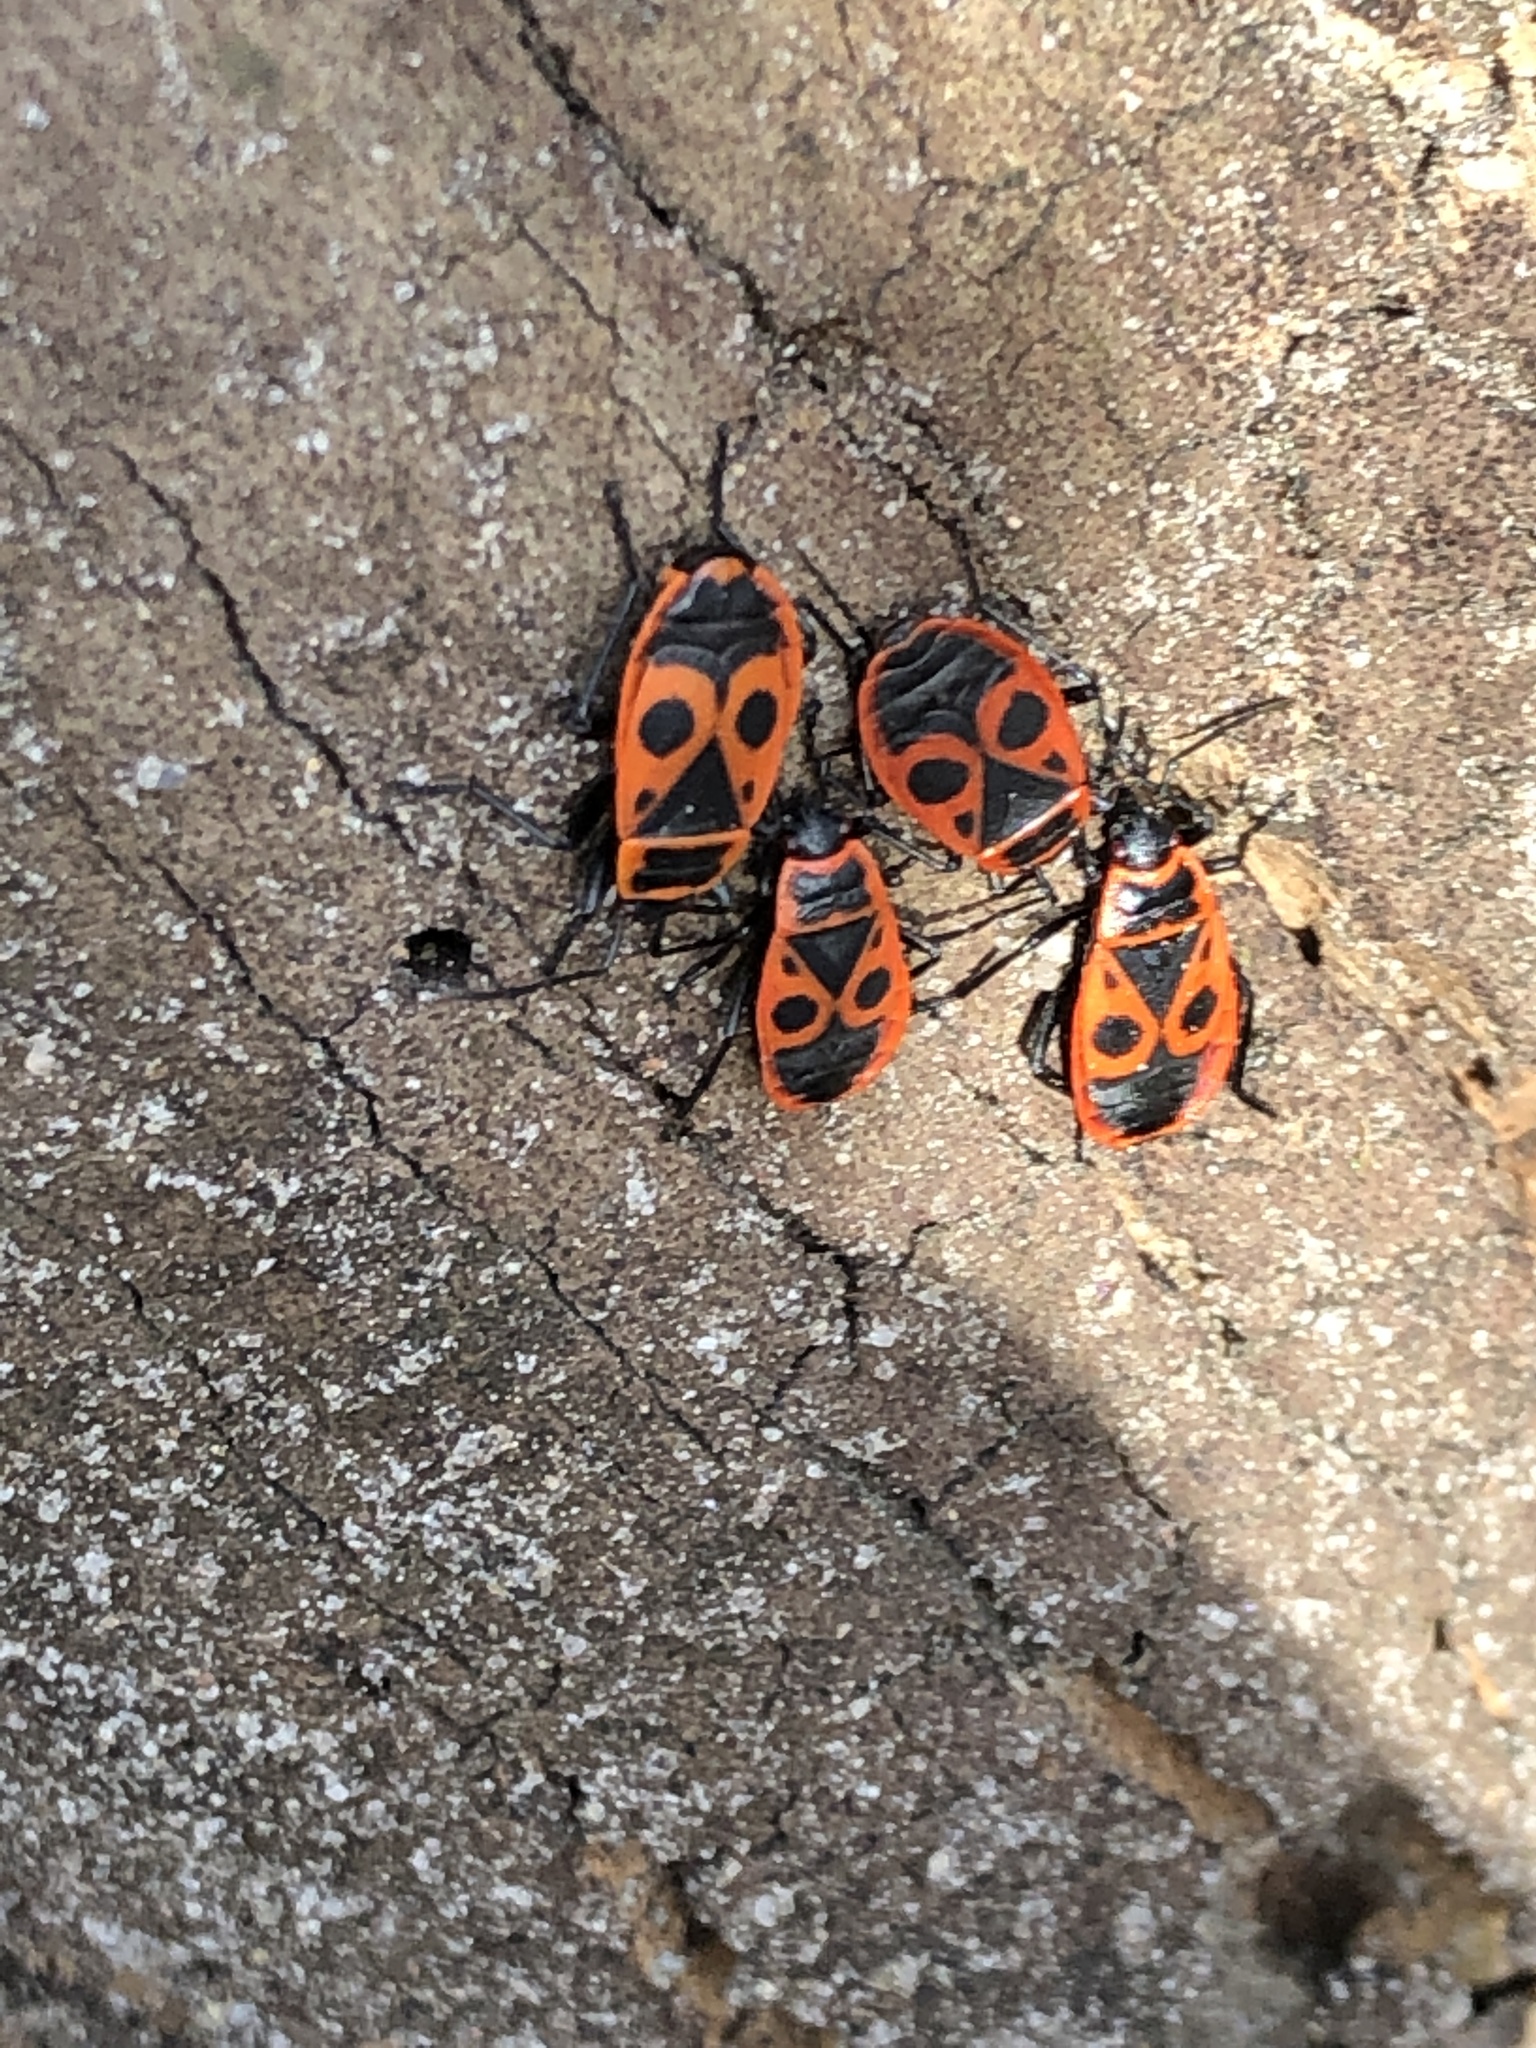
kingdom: Animalia
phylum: Arthropoda
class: Insecta
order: Hemiptera
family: Pyrrhocoridae
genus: Pyrrhocoris
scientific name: Pyrrhocoris apterus
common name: Firebug
